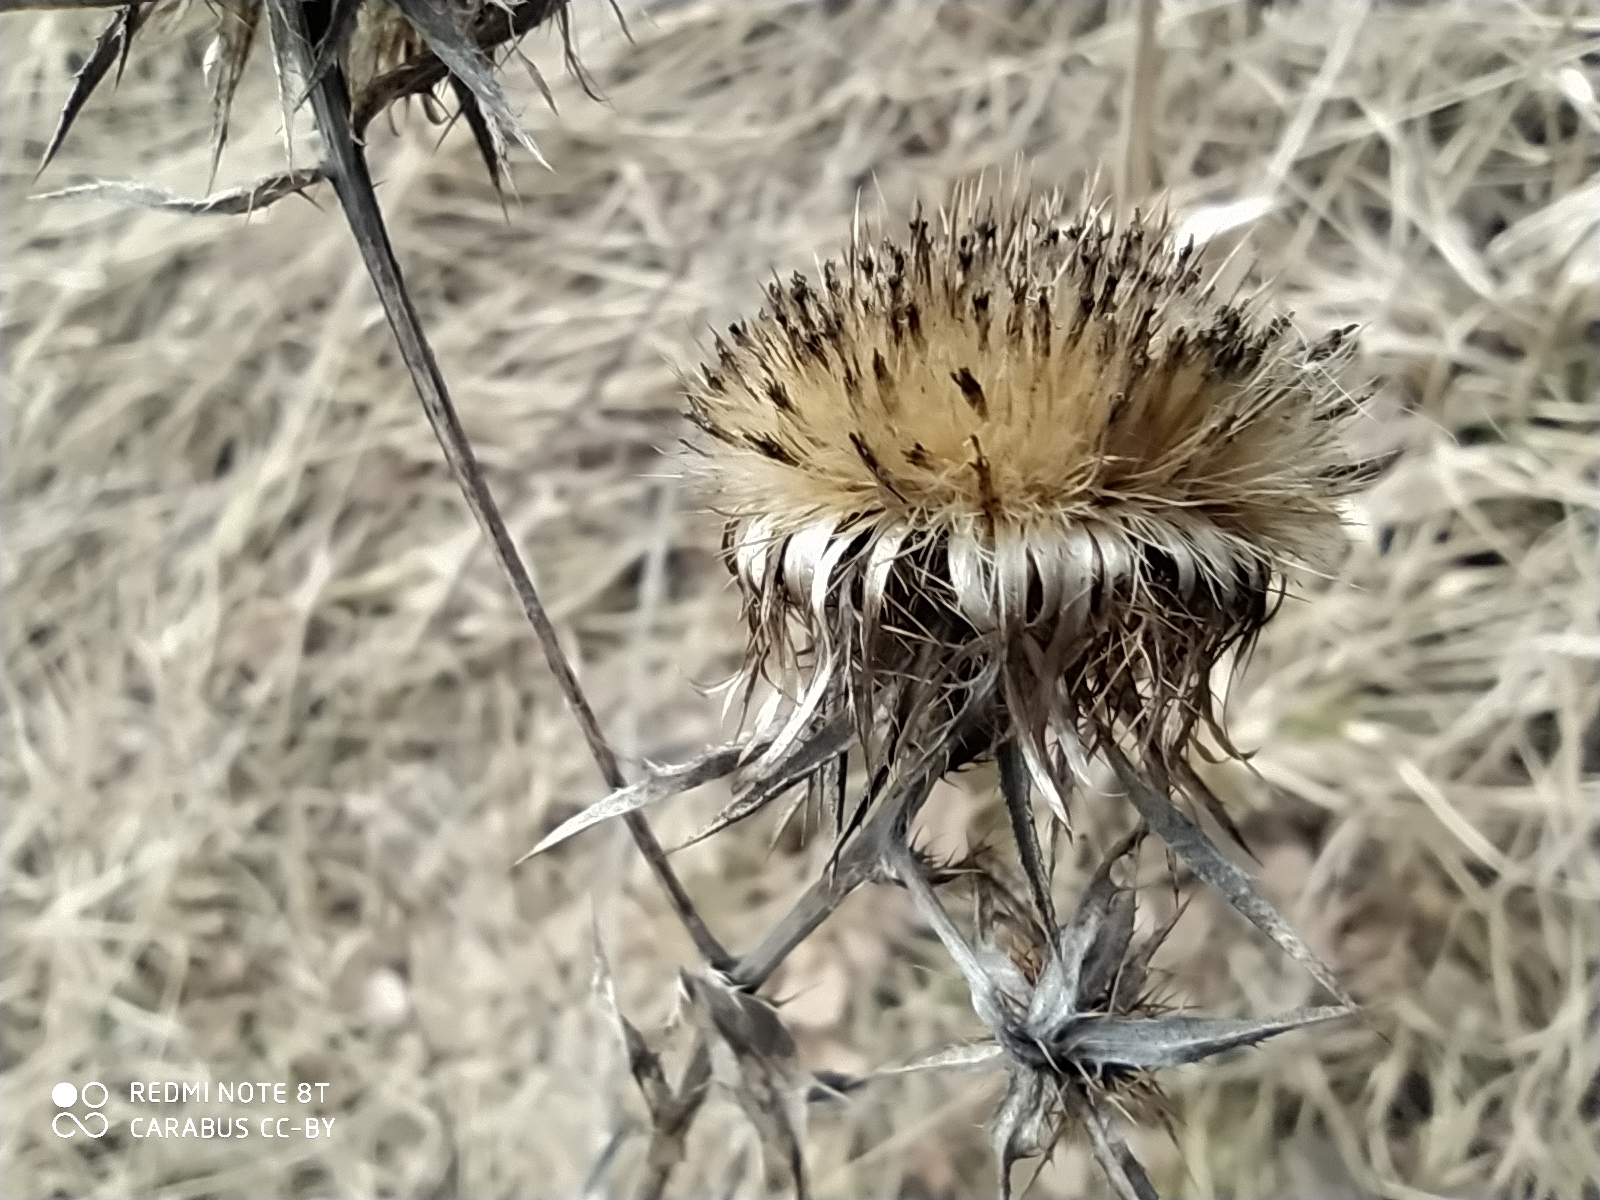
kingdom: Plantae
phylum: Tracheophyta
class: Magnoliopsida
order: Asterales
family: Asteraceae
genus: Carlina
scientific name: Carlina biebersteinii
